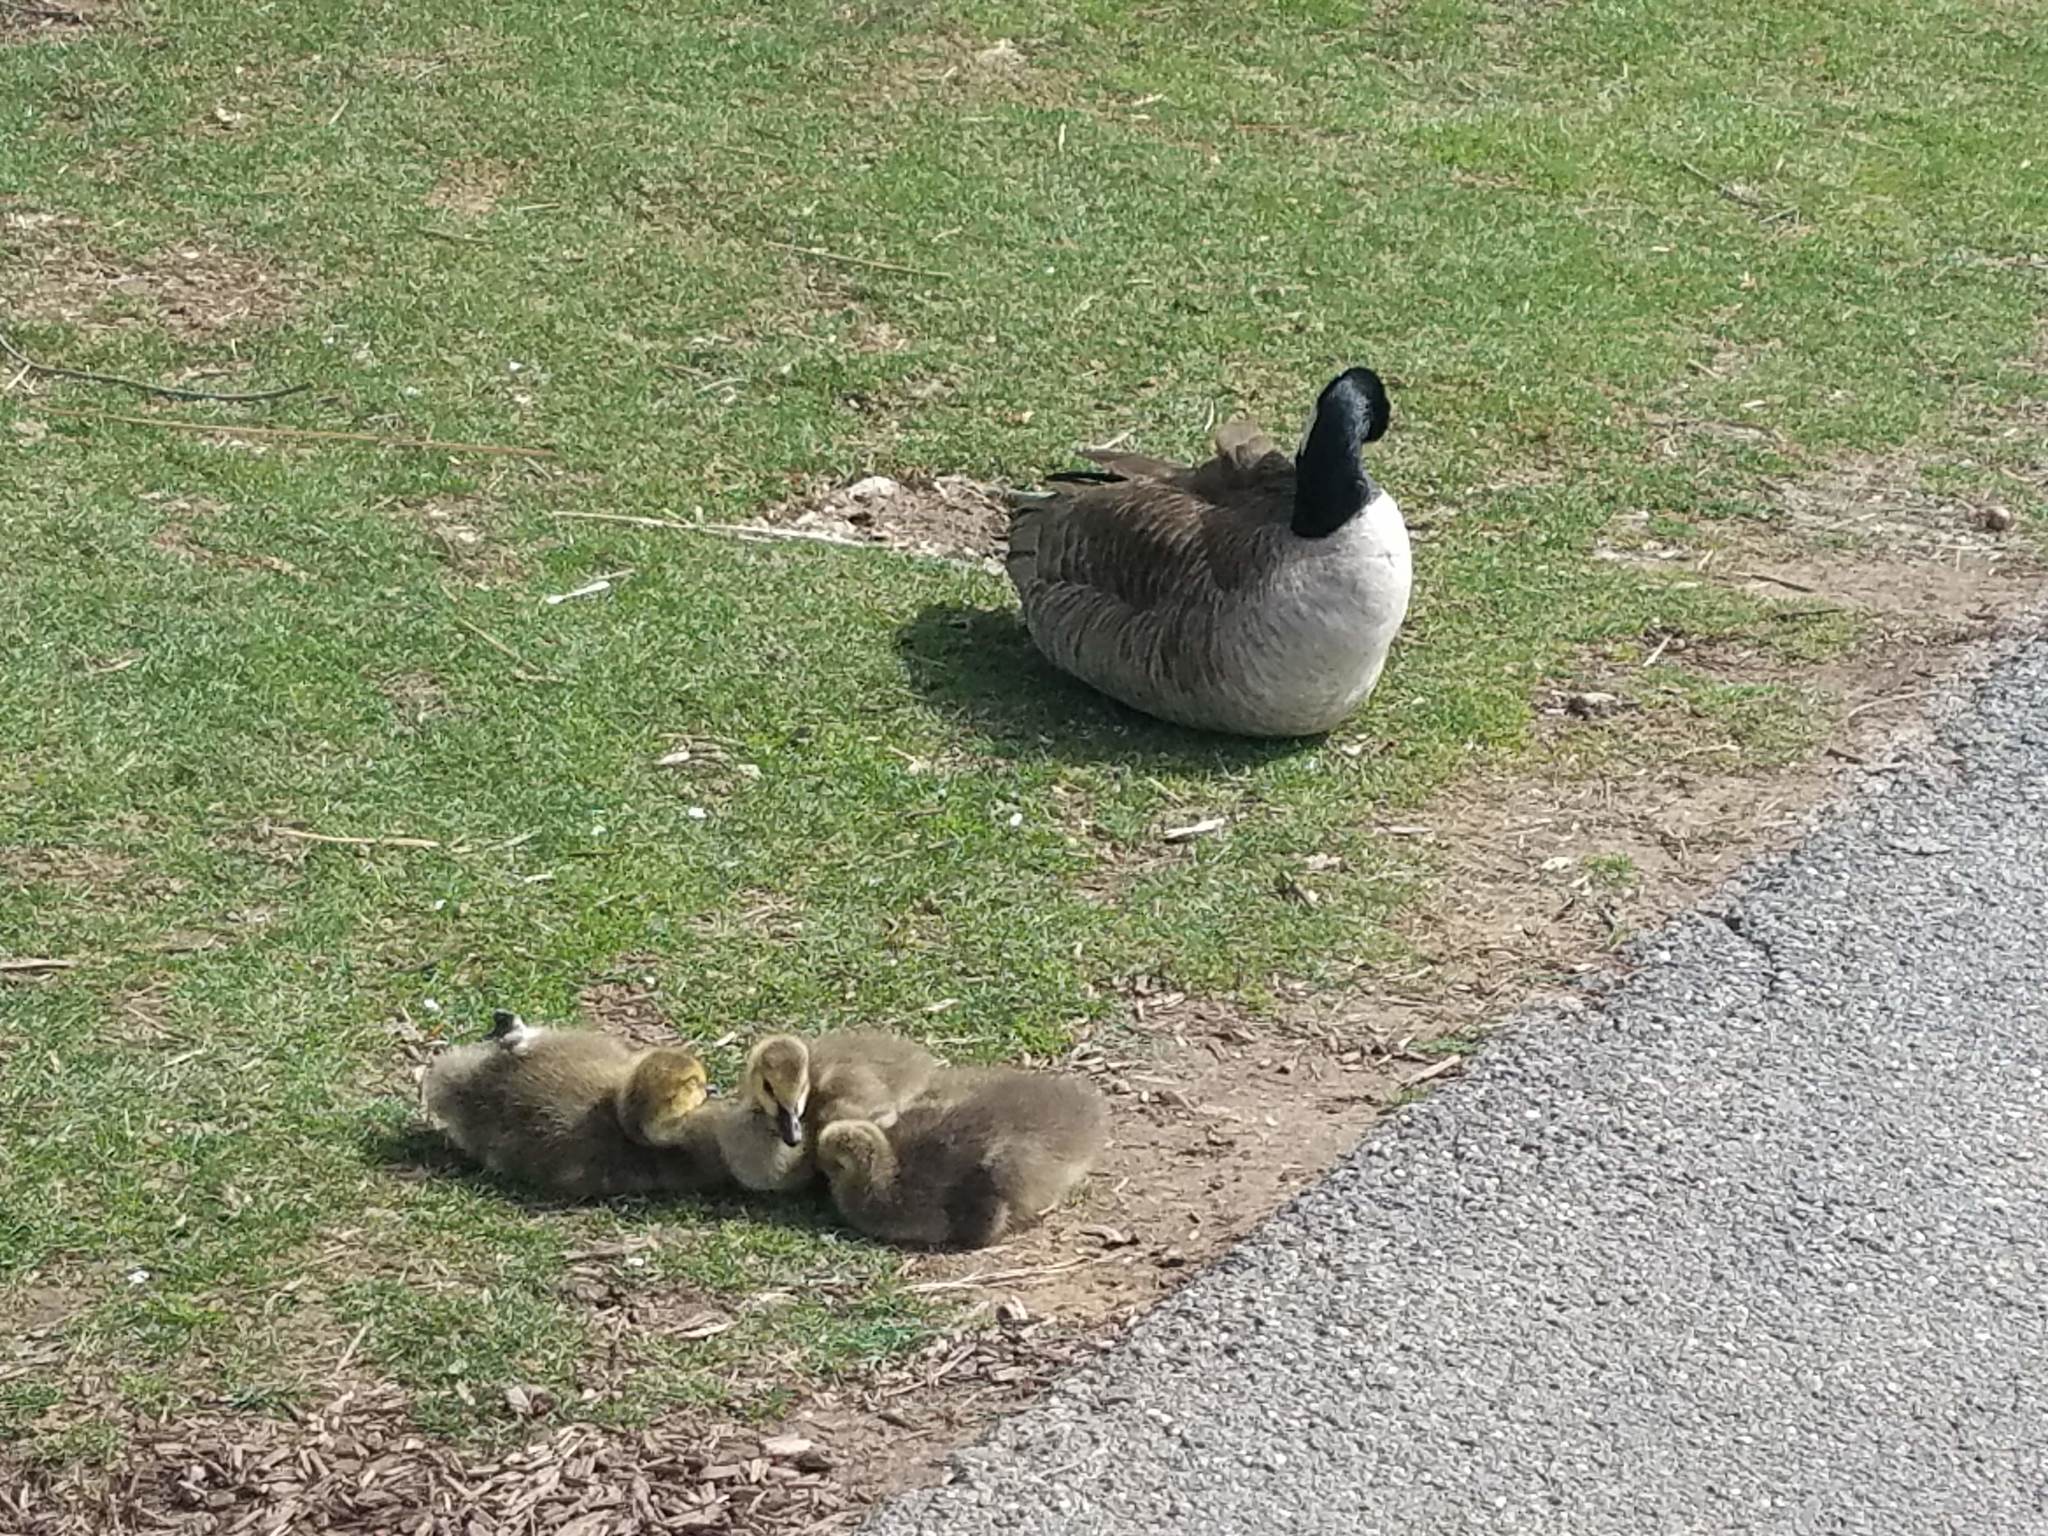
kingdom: Animalia
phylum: Chordata
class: Aves
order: Anseriformes
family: Anatidae
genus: Branta
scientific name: Branta canadensis
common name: Canada goose
